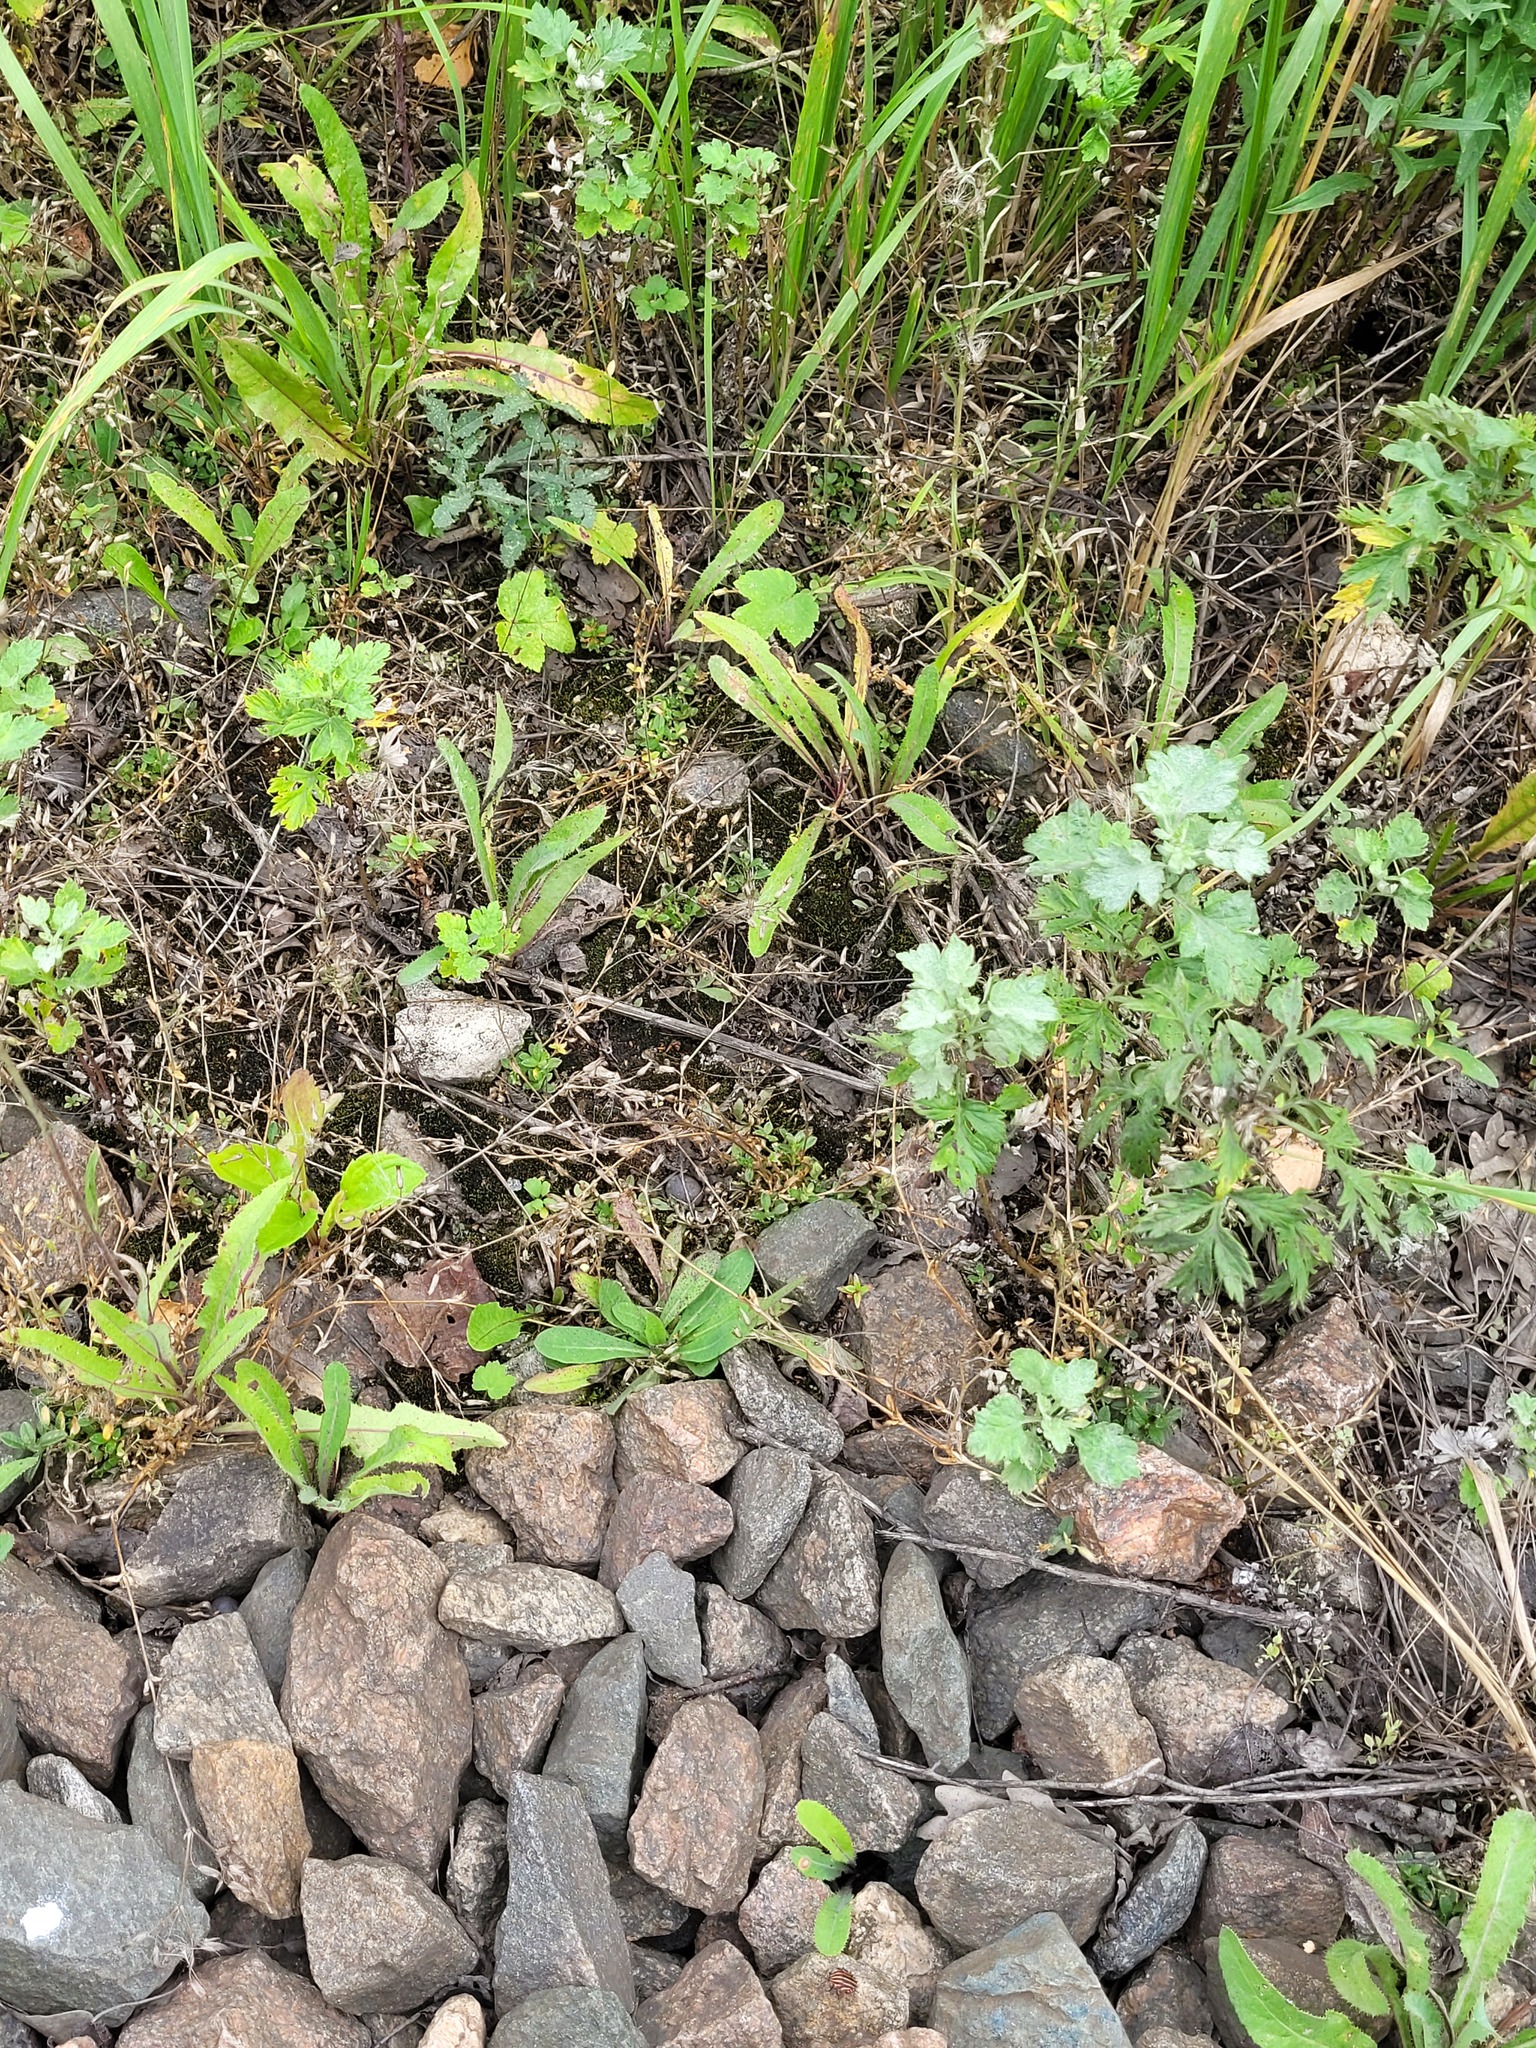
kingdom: Plantae
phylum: Tracheophyta
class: Magnoliopsida
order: Caryophyllales
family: Caryophyllaceae
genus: Cerastium
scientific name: Cerastium holosteoides
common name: Big chickweed
